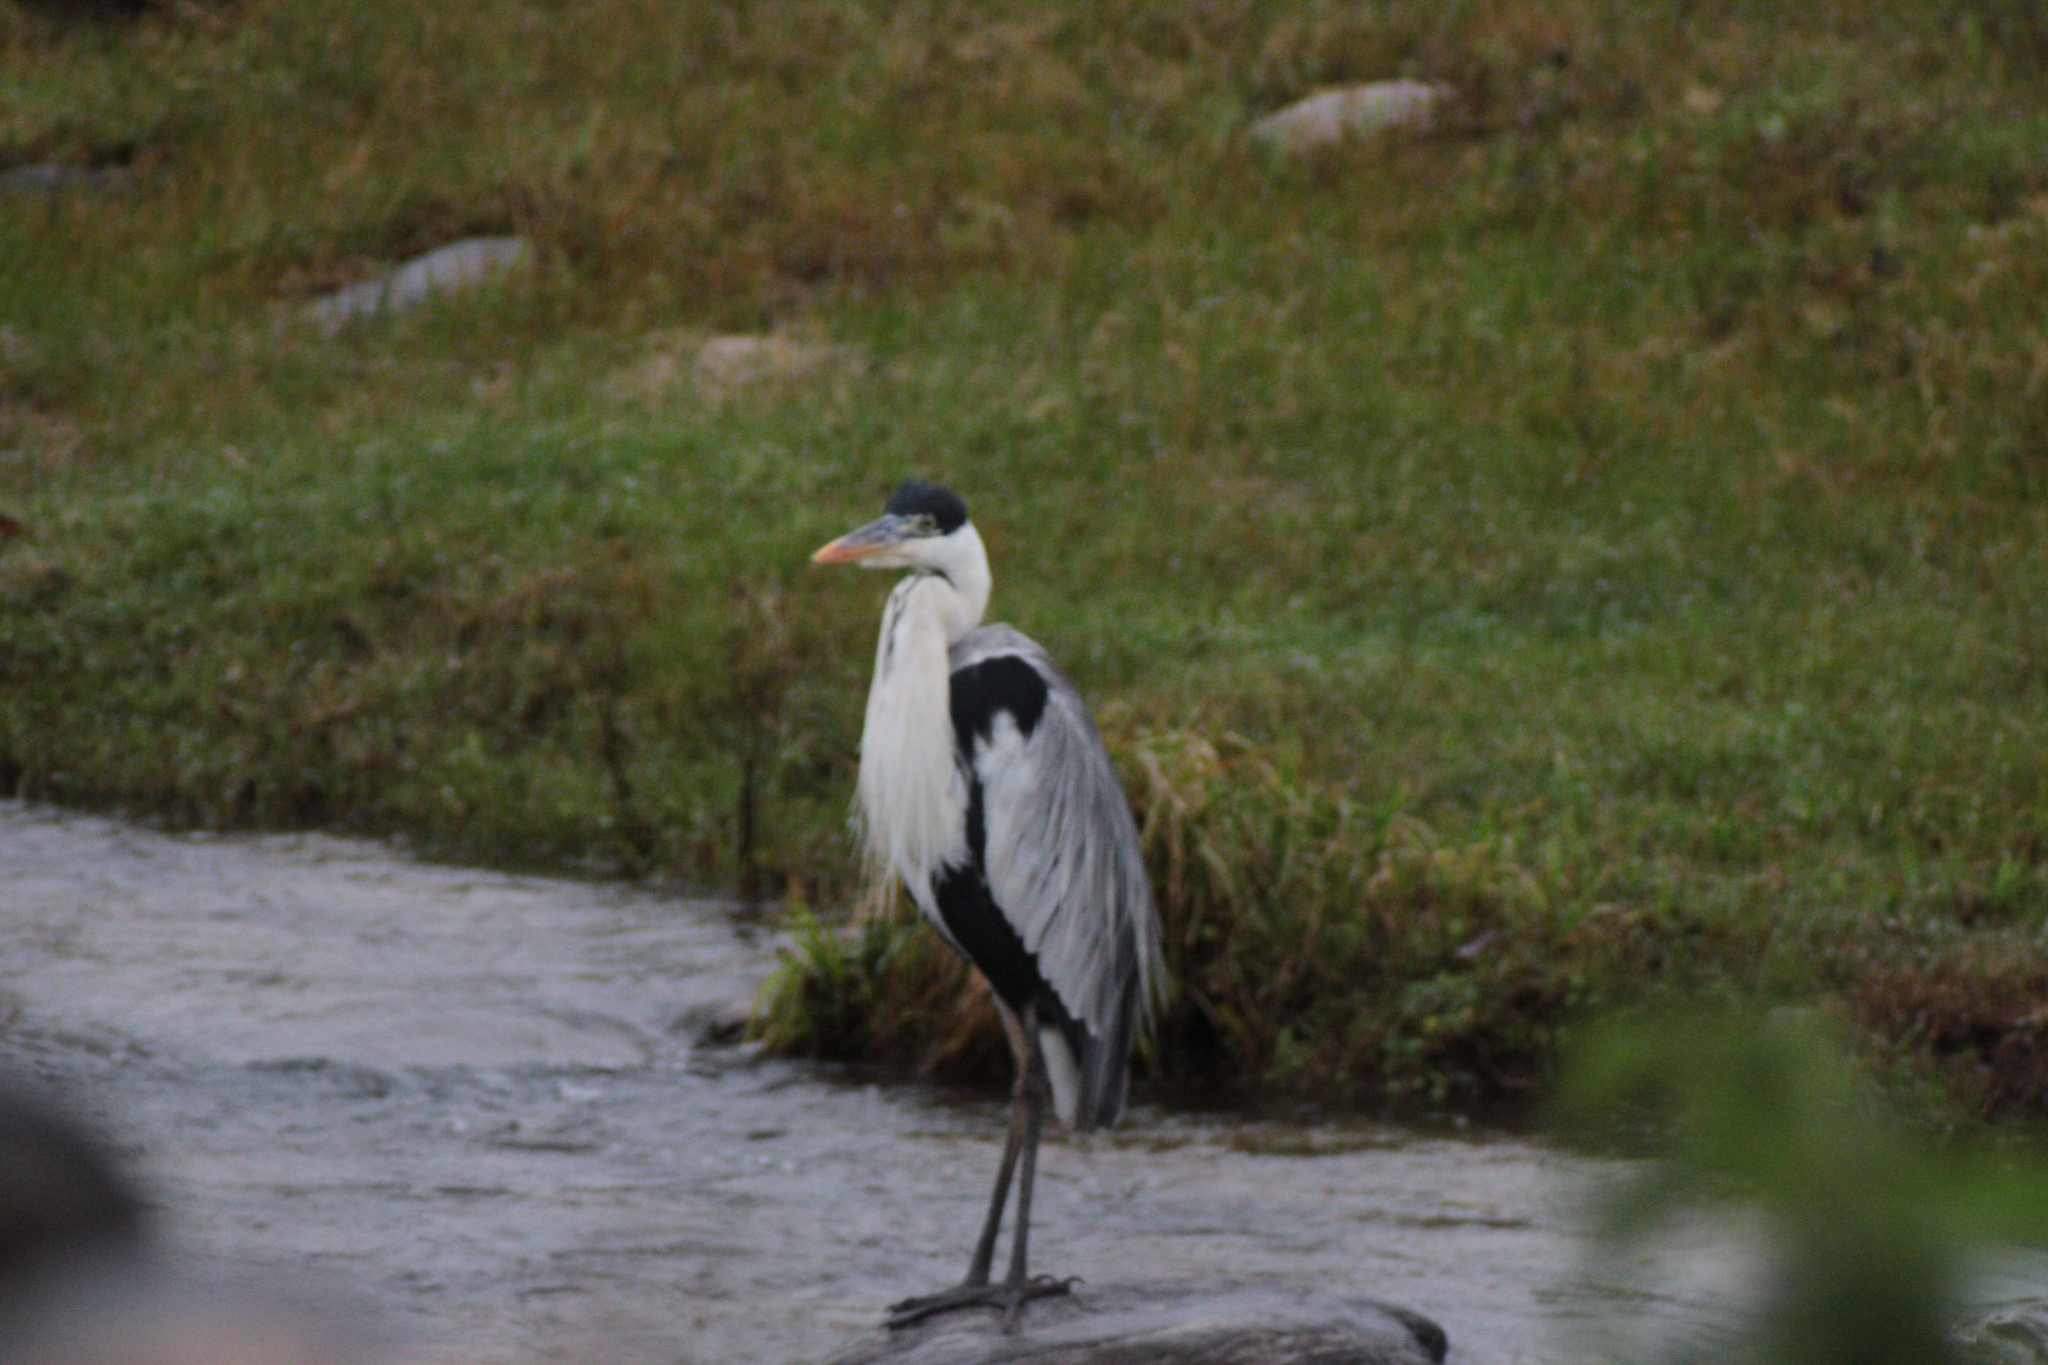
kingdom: Animalia
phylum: Chordata
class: Aves
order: Pelecaniformes
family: Ardeidae
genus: Ardea
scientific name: Ardea cocoi
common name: Cocoi heron
